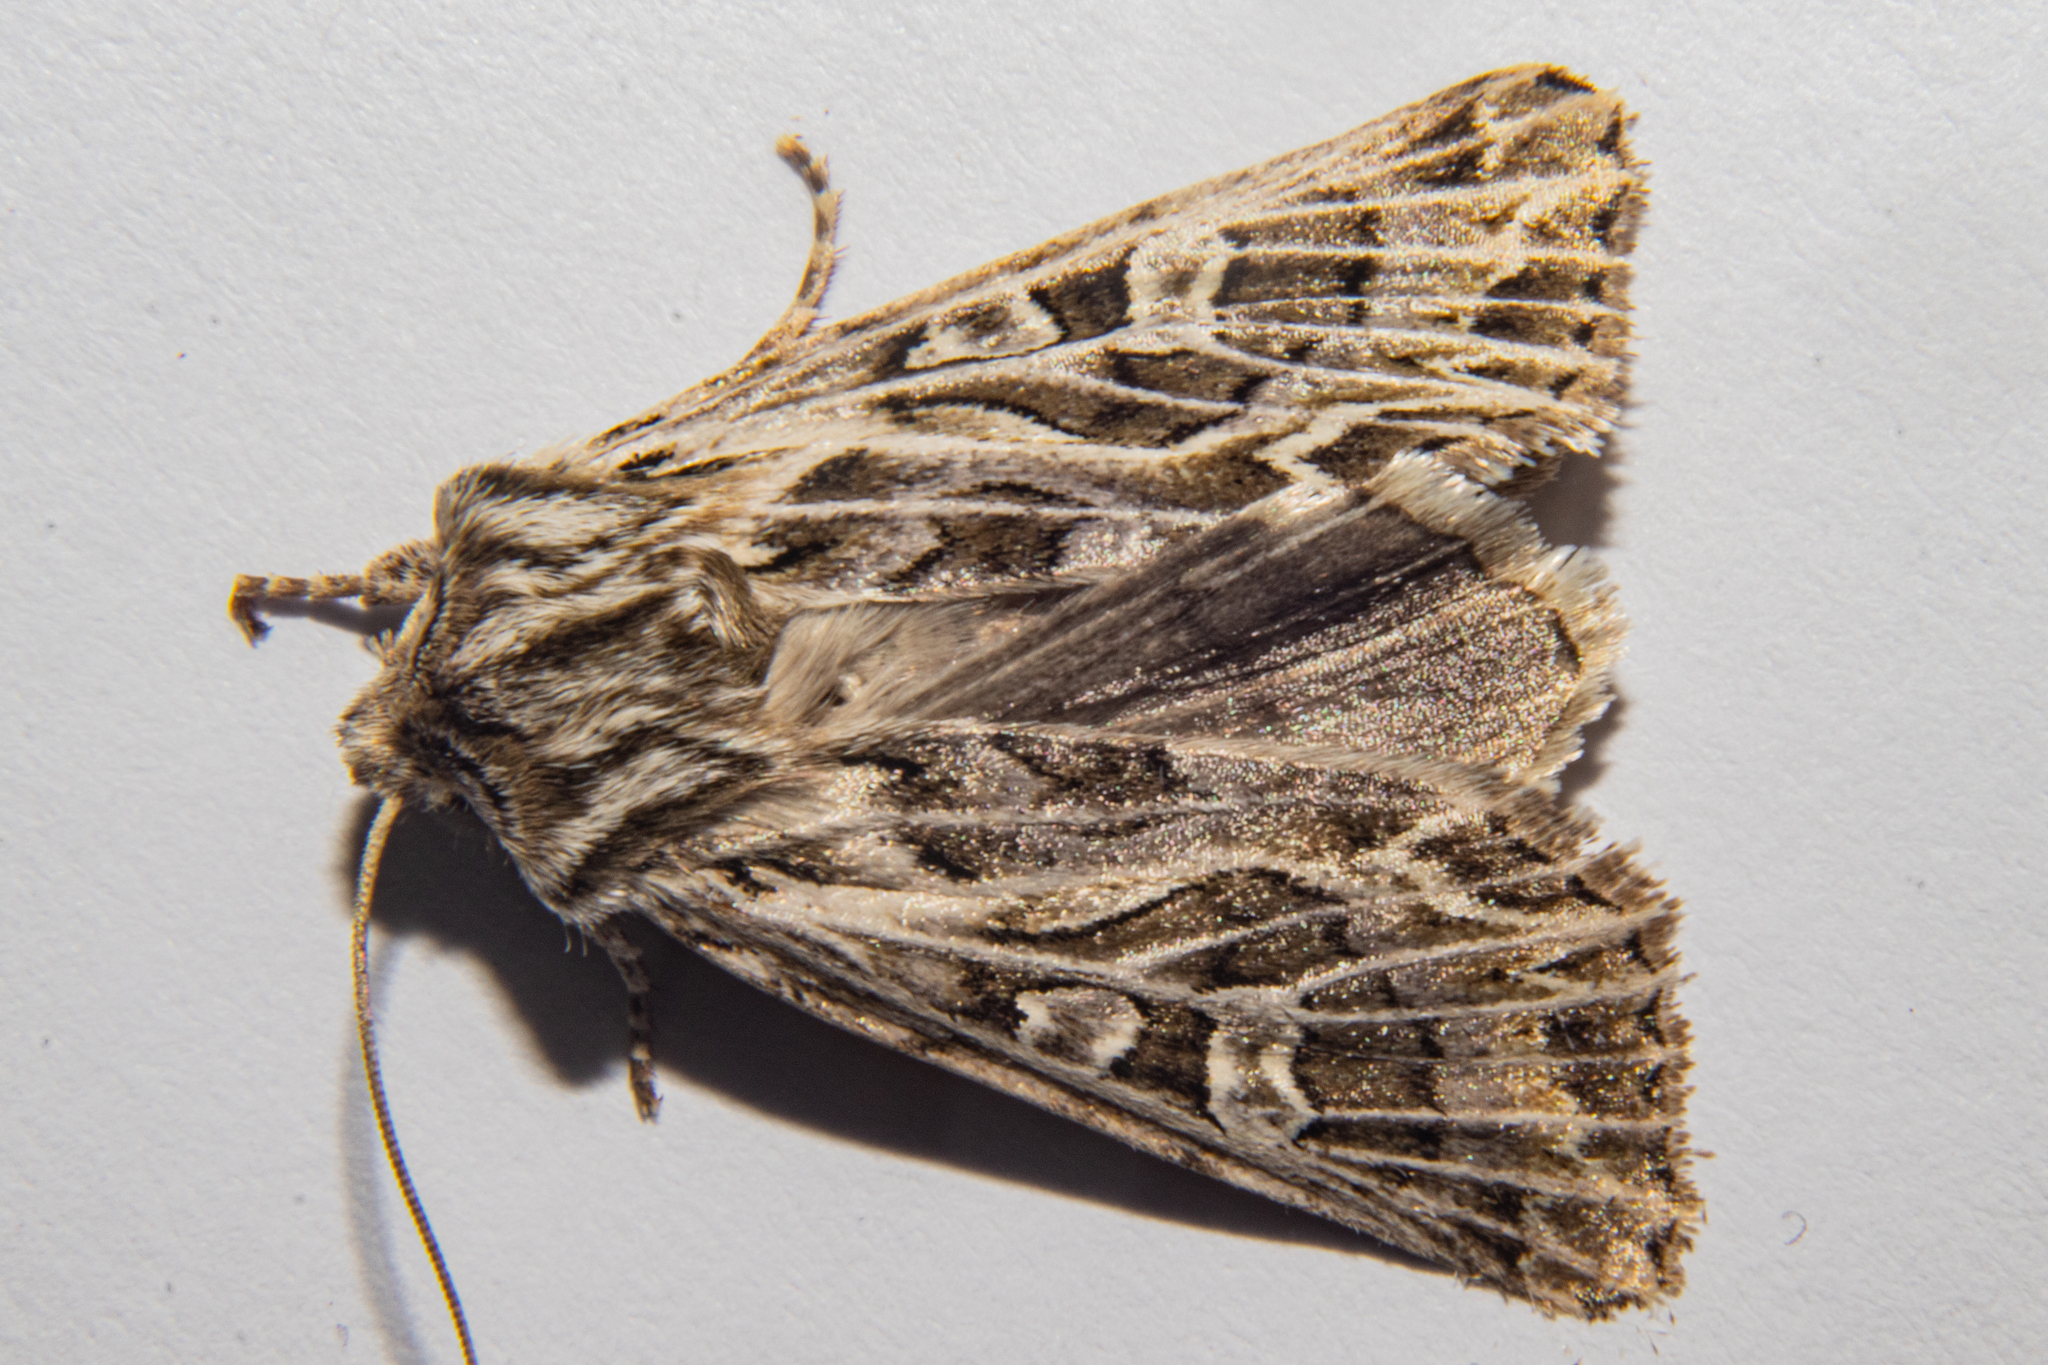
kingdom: Animalia
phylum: Arthropoda
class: Insecta
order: Lepidoptera
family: Noctuidae
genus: Ichneutica
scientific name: Ichneutica
